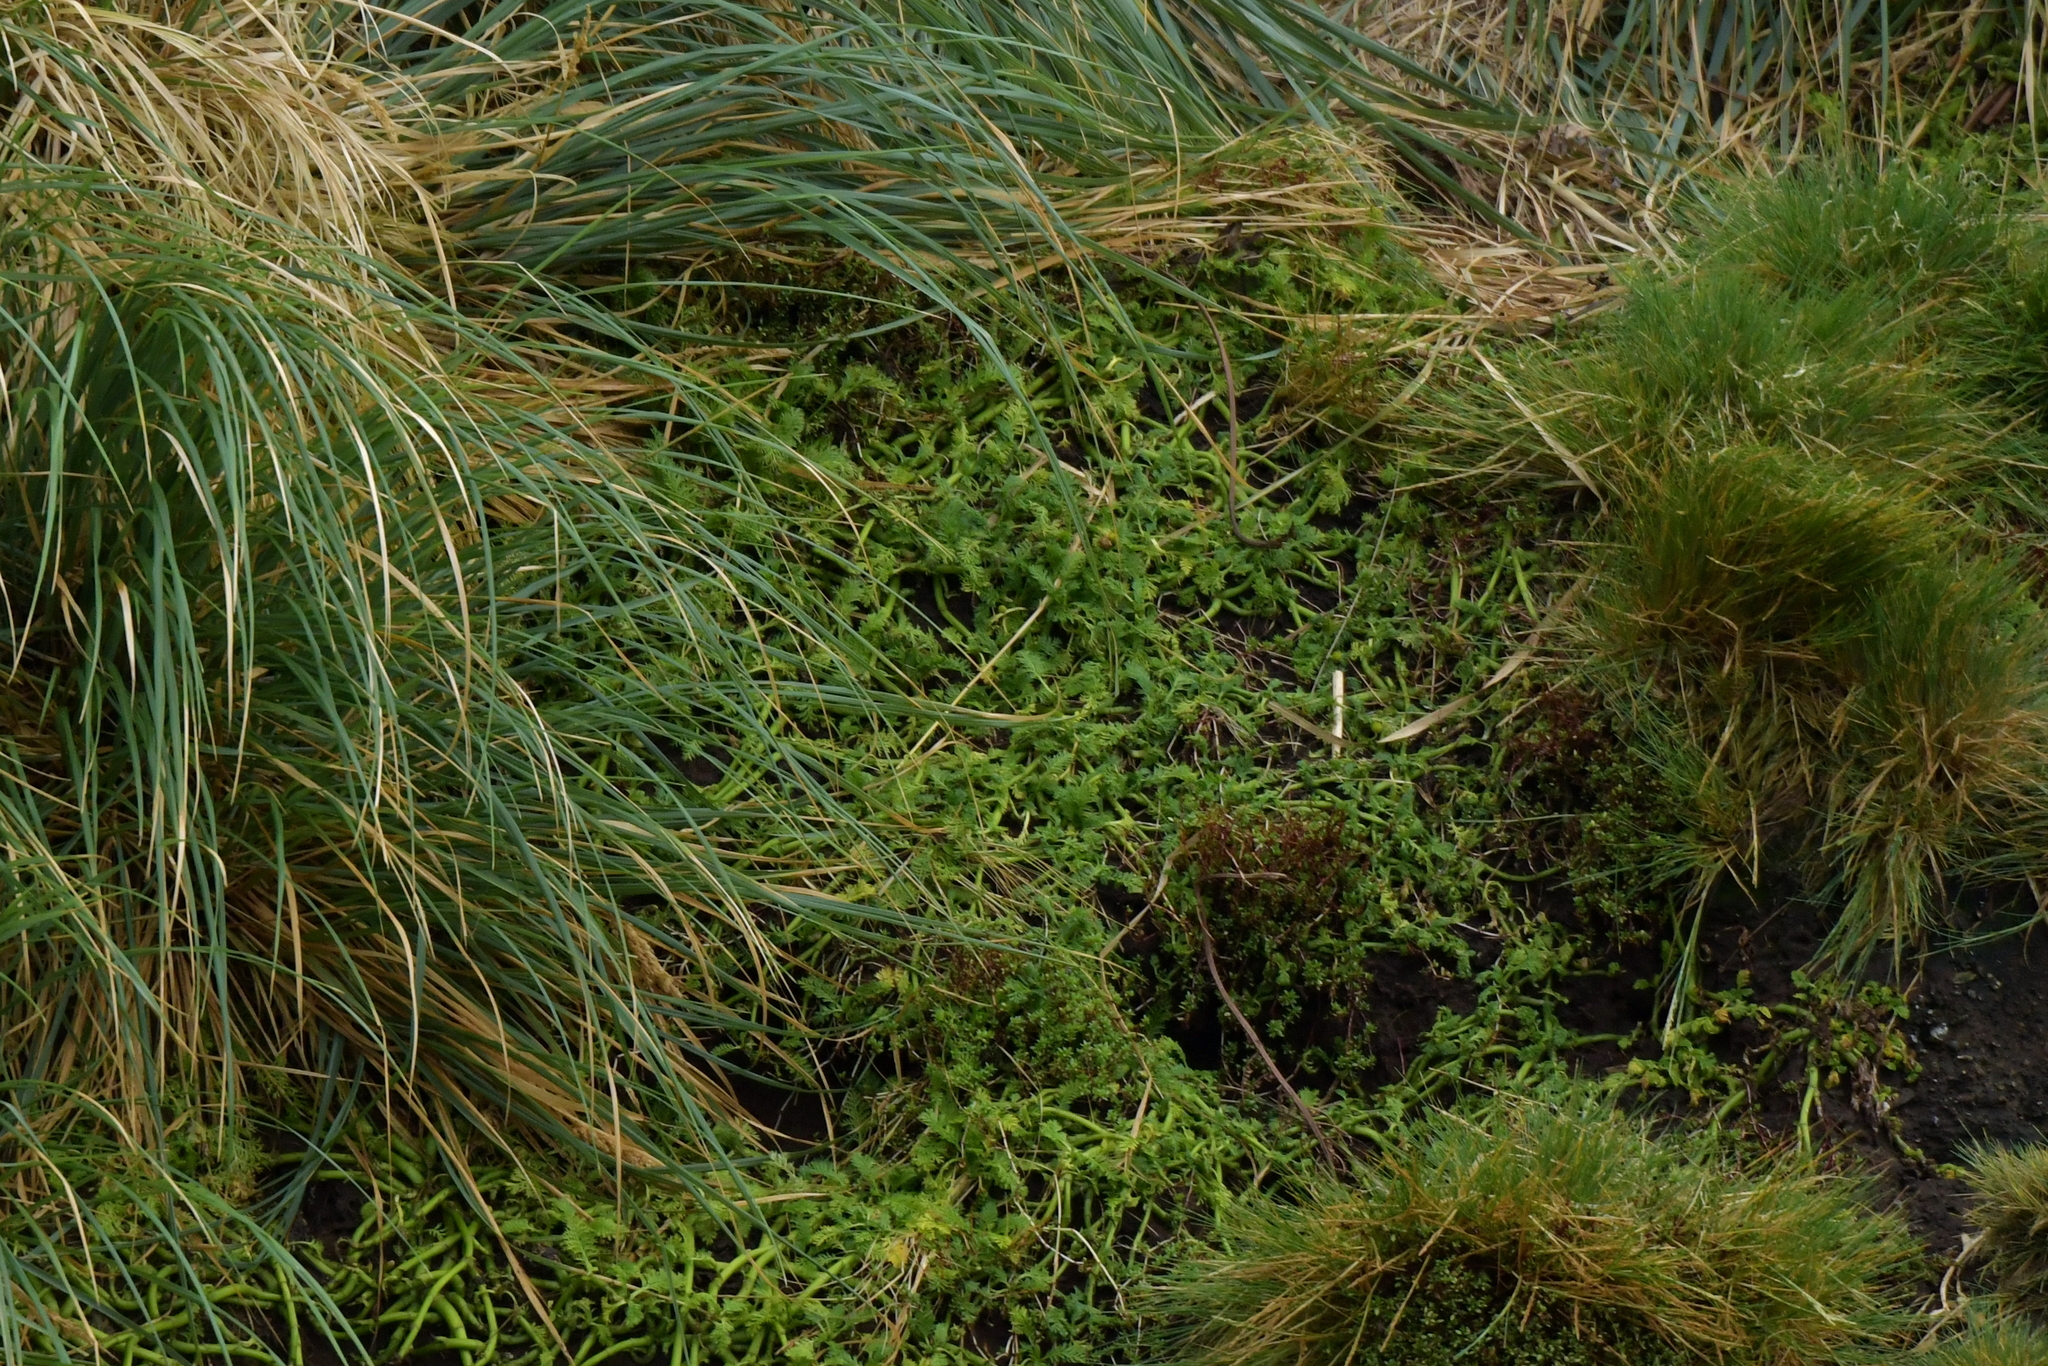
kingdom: Plantae
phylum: Tracheophyta
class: Magnoliopsida
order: Asterales
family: Asteraceae
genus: Leptinella
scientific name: Leptinella plumosa
